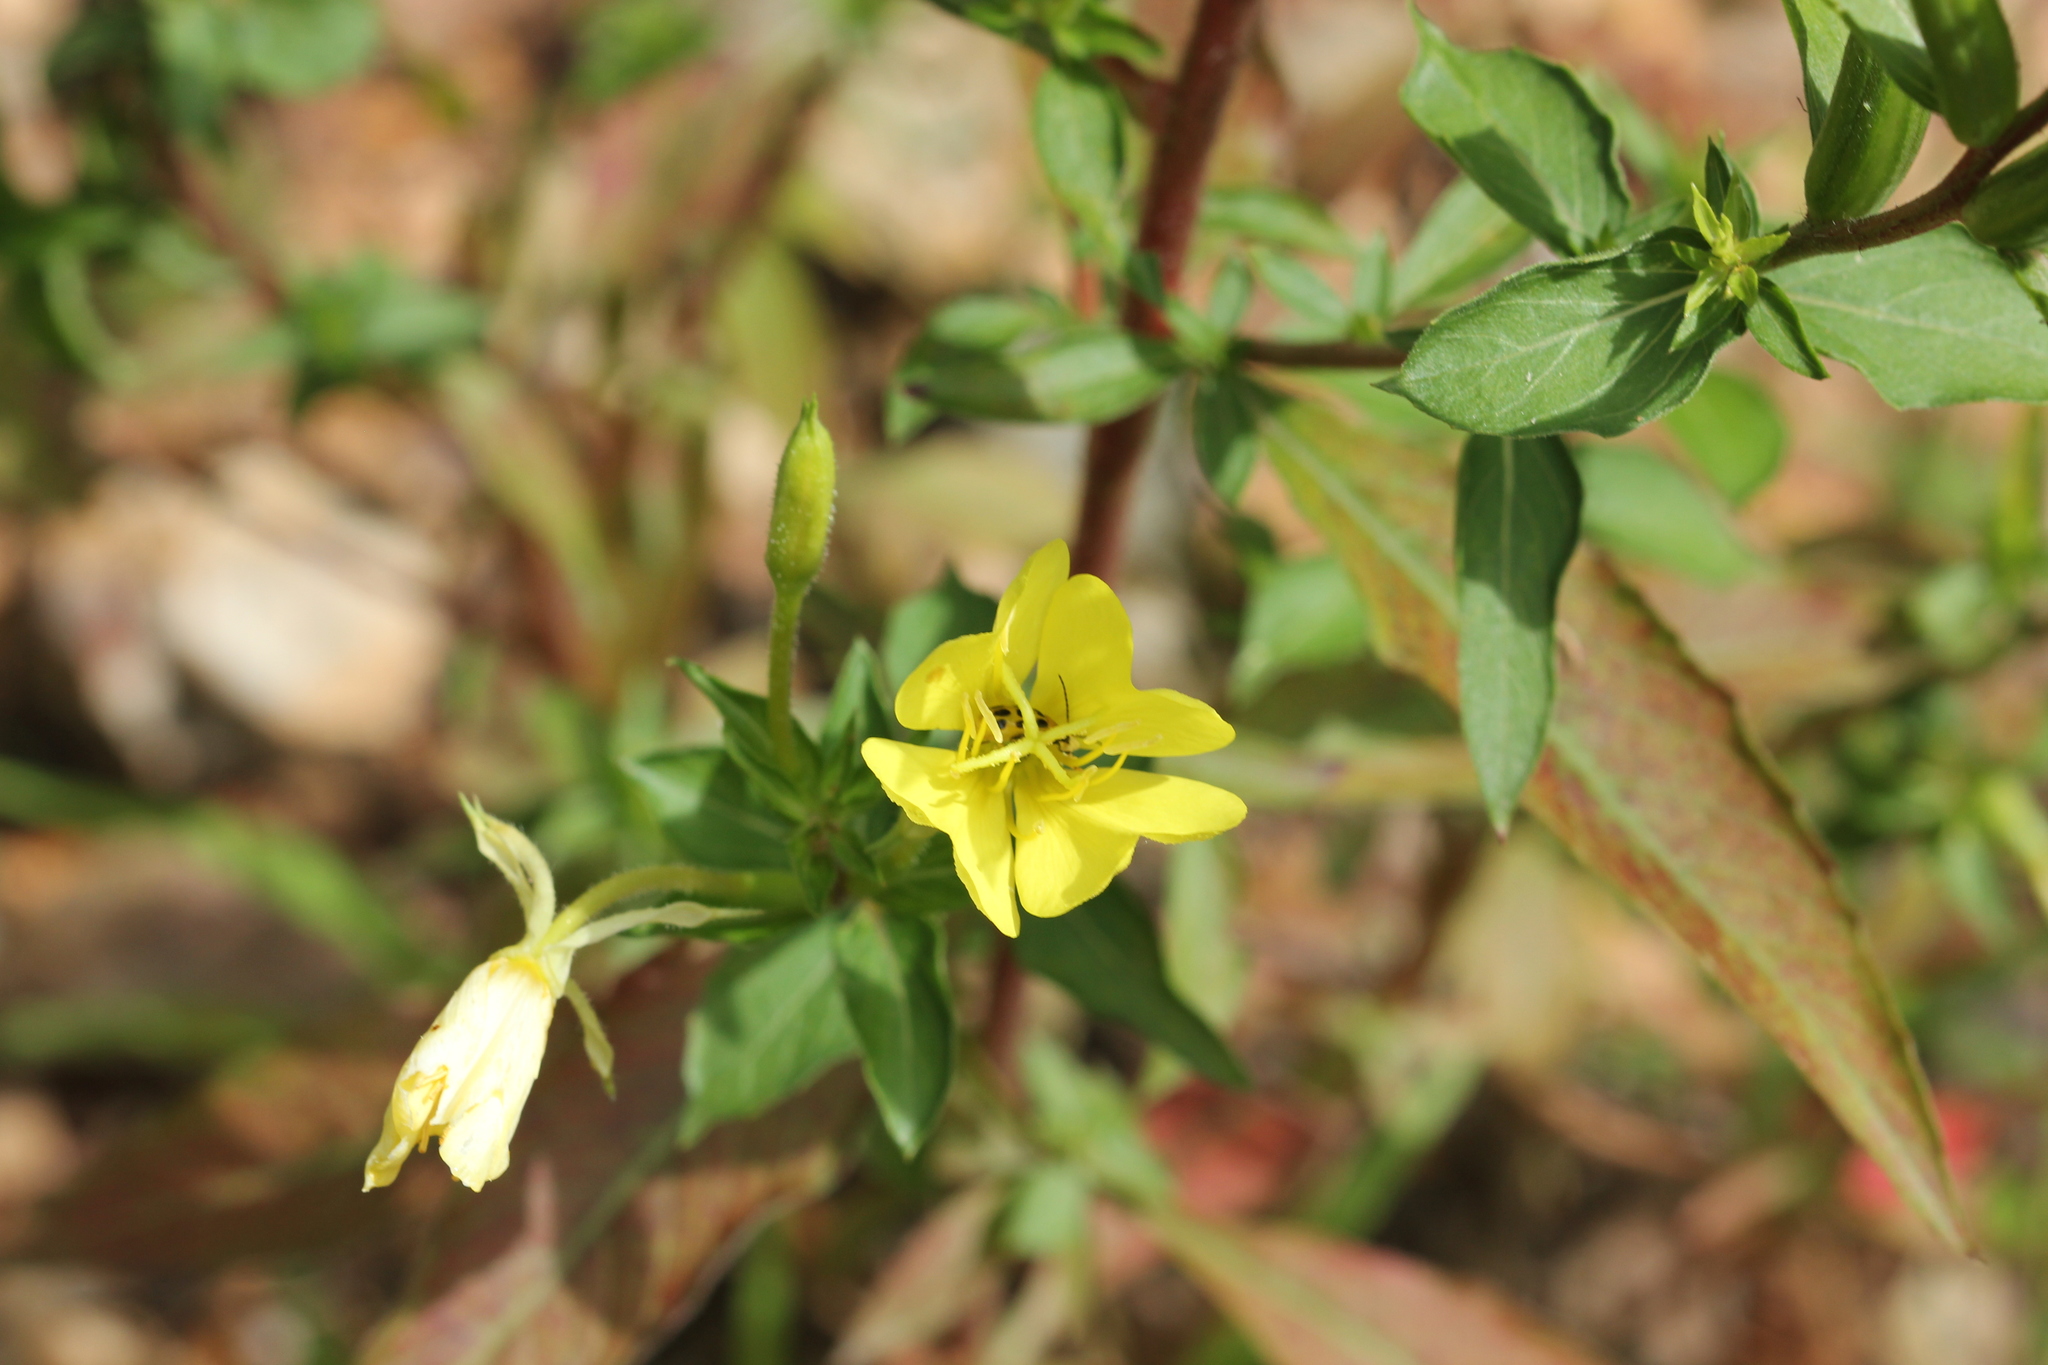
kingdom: Plantae
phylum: Tracheophyta
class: Magnoliopsida
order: Myrtales
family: Onagraceae
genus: Oenothera
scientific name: Oenothera biennis
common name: Common evening-primrose
